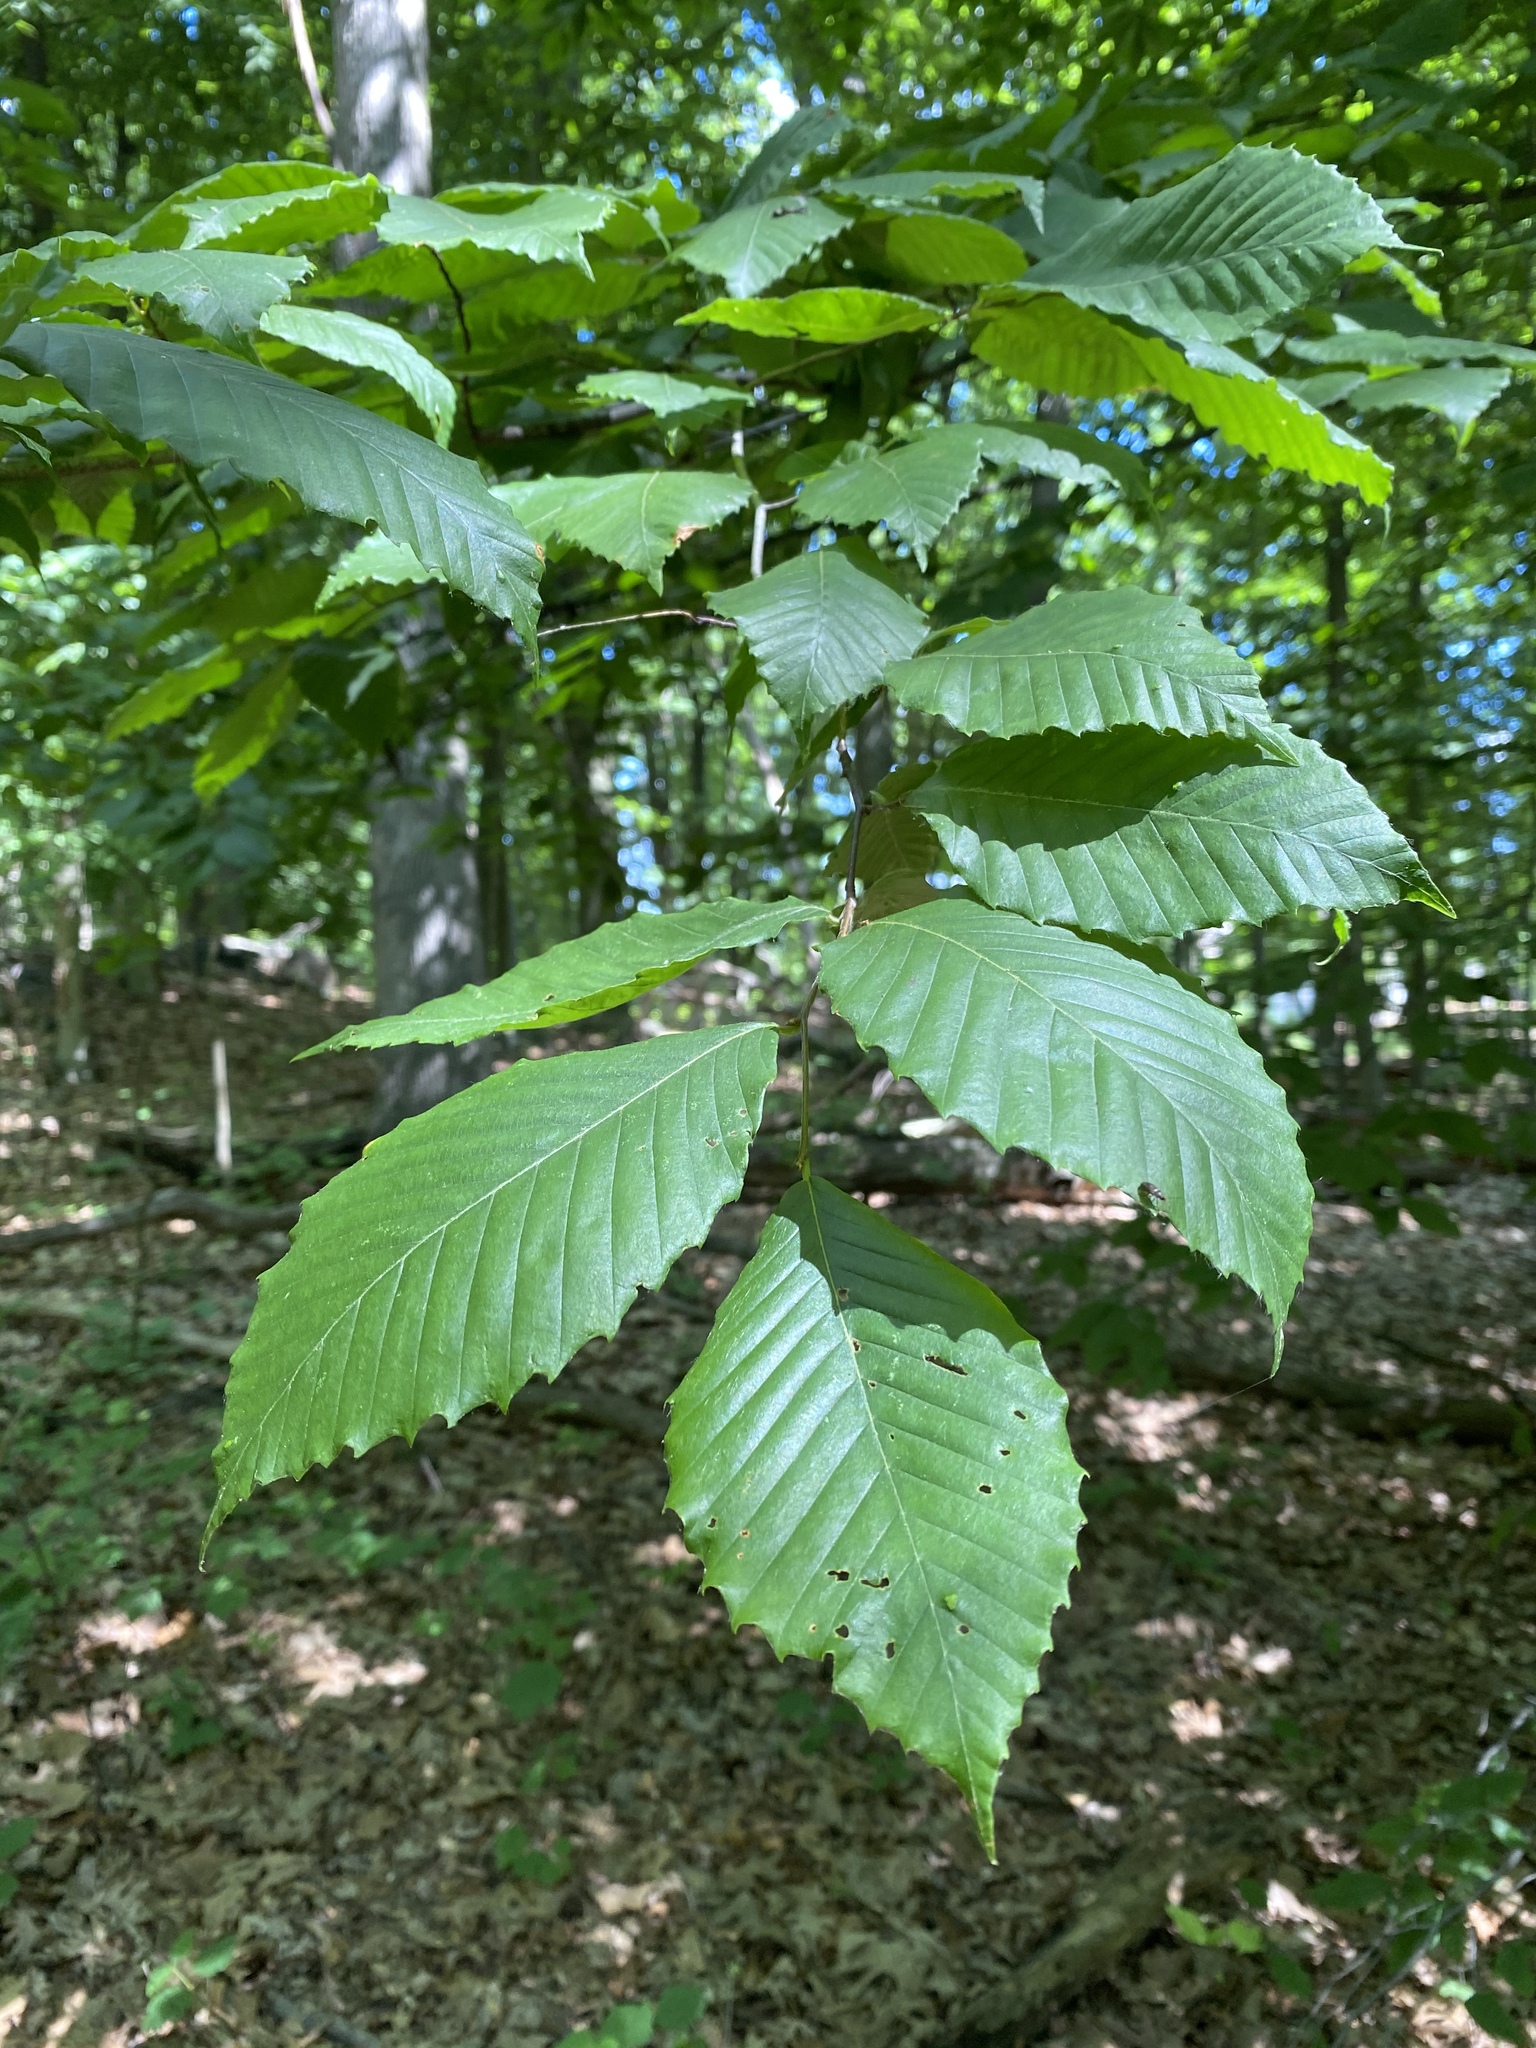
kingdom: Plantae
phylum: Tracheophyta
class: Magnoliopsida
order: Fagales
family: Fagaceae
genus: Fagus
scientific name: Fagus grandifolia
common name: American beech
